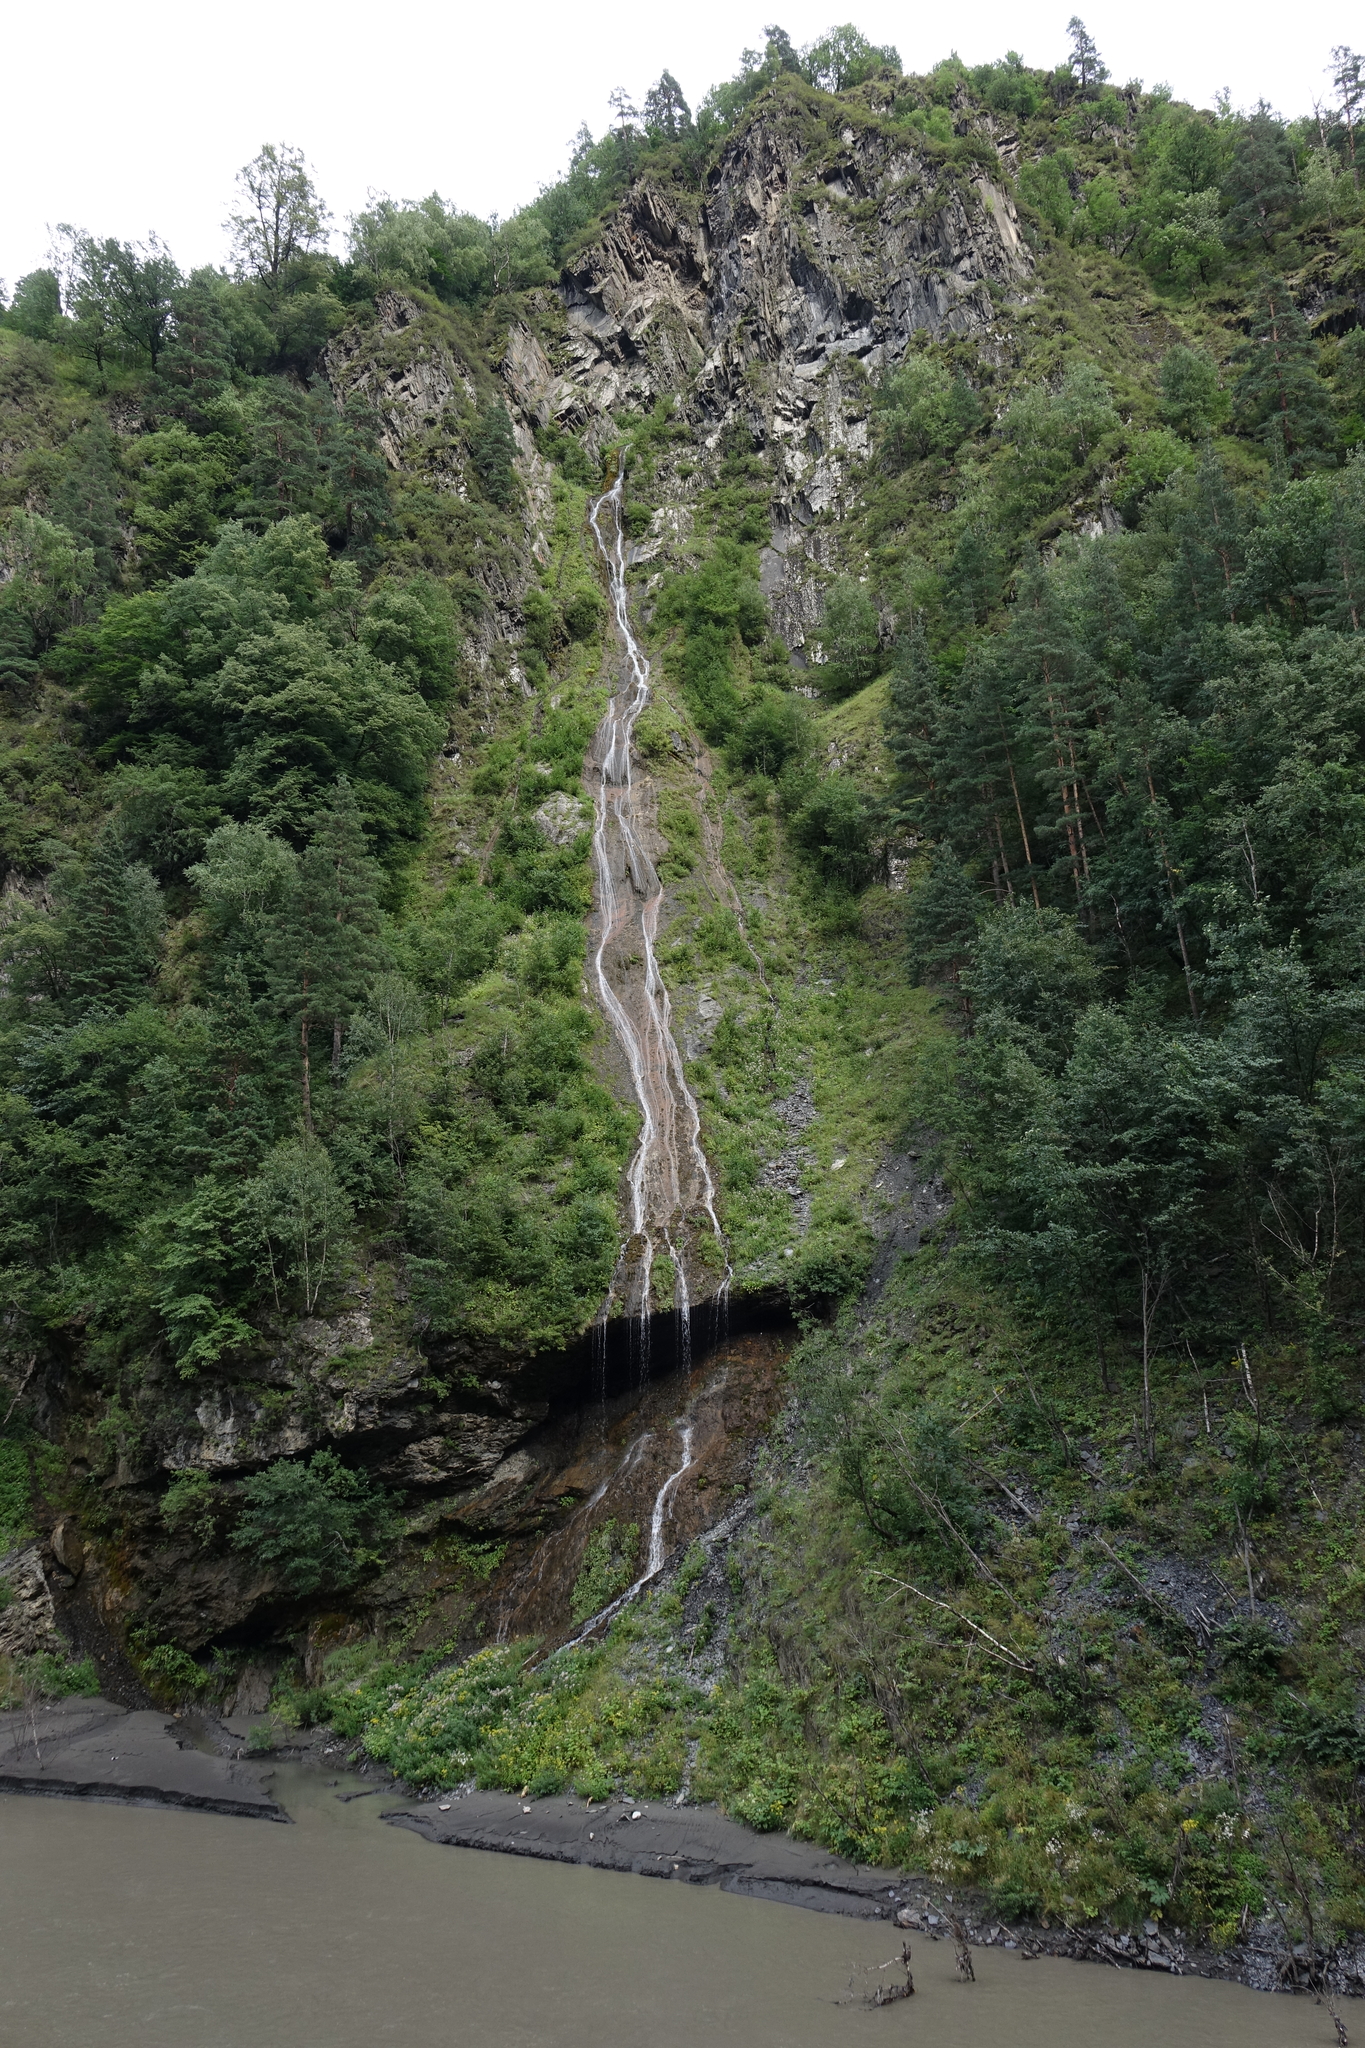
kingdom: Plantae
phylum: Tracheophyta
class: Pinopsida
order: Pinales
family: Pinaceae
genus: Pinus
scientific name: Pinus sylvestris
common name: Scots pine
